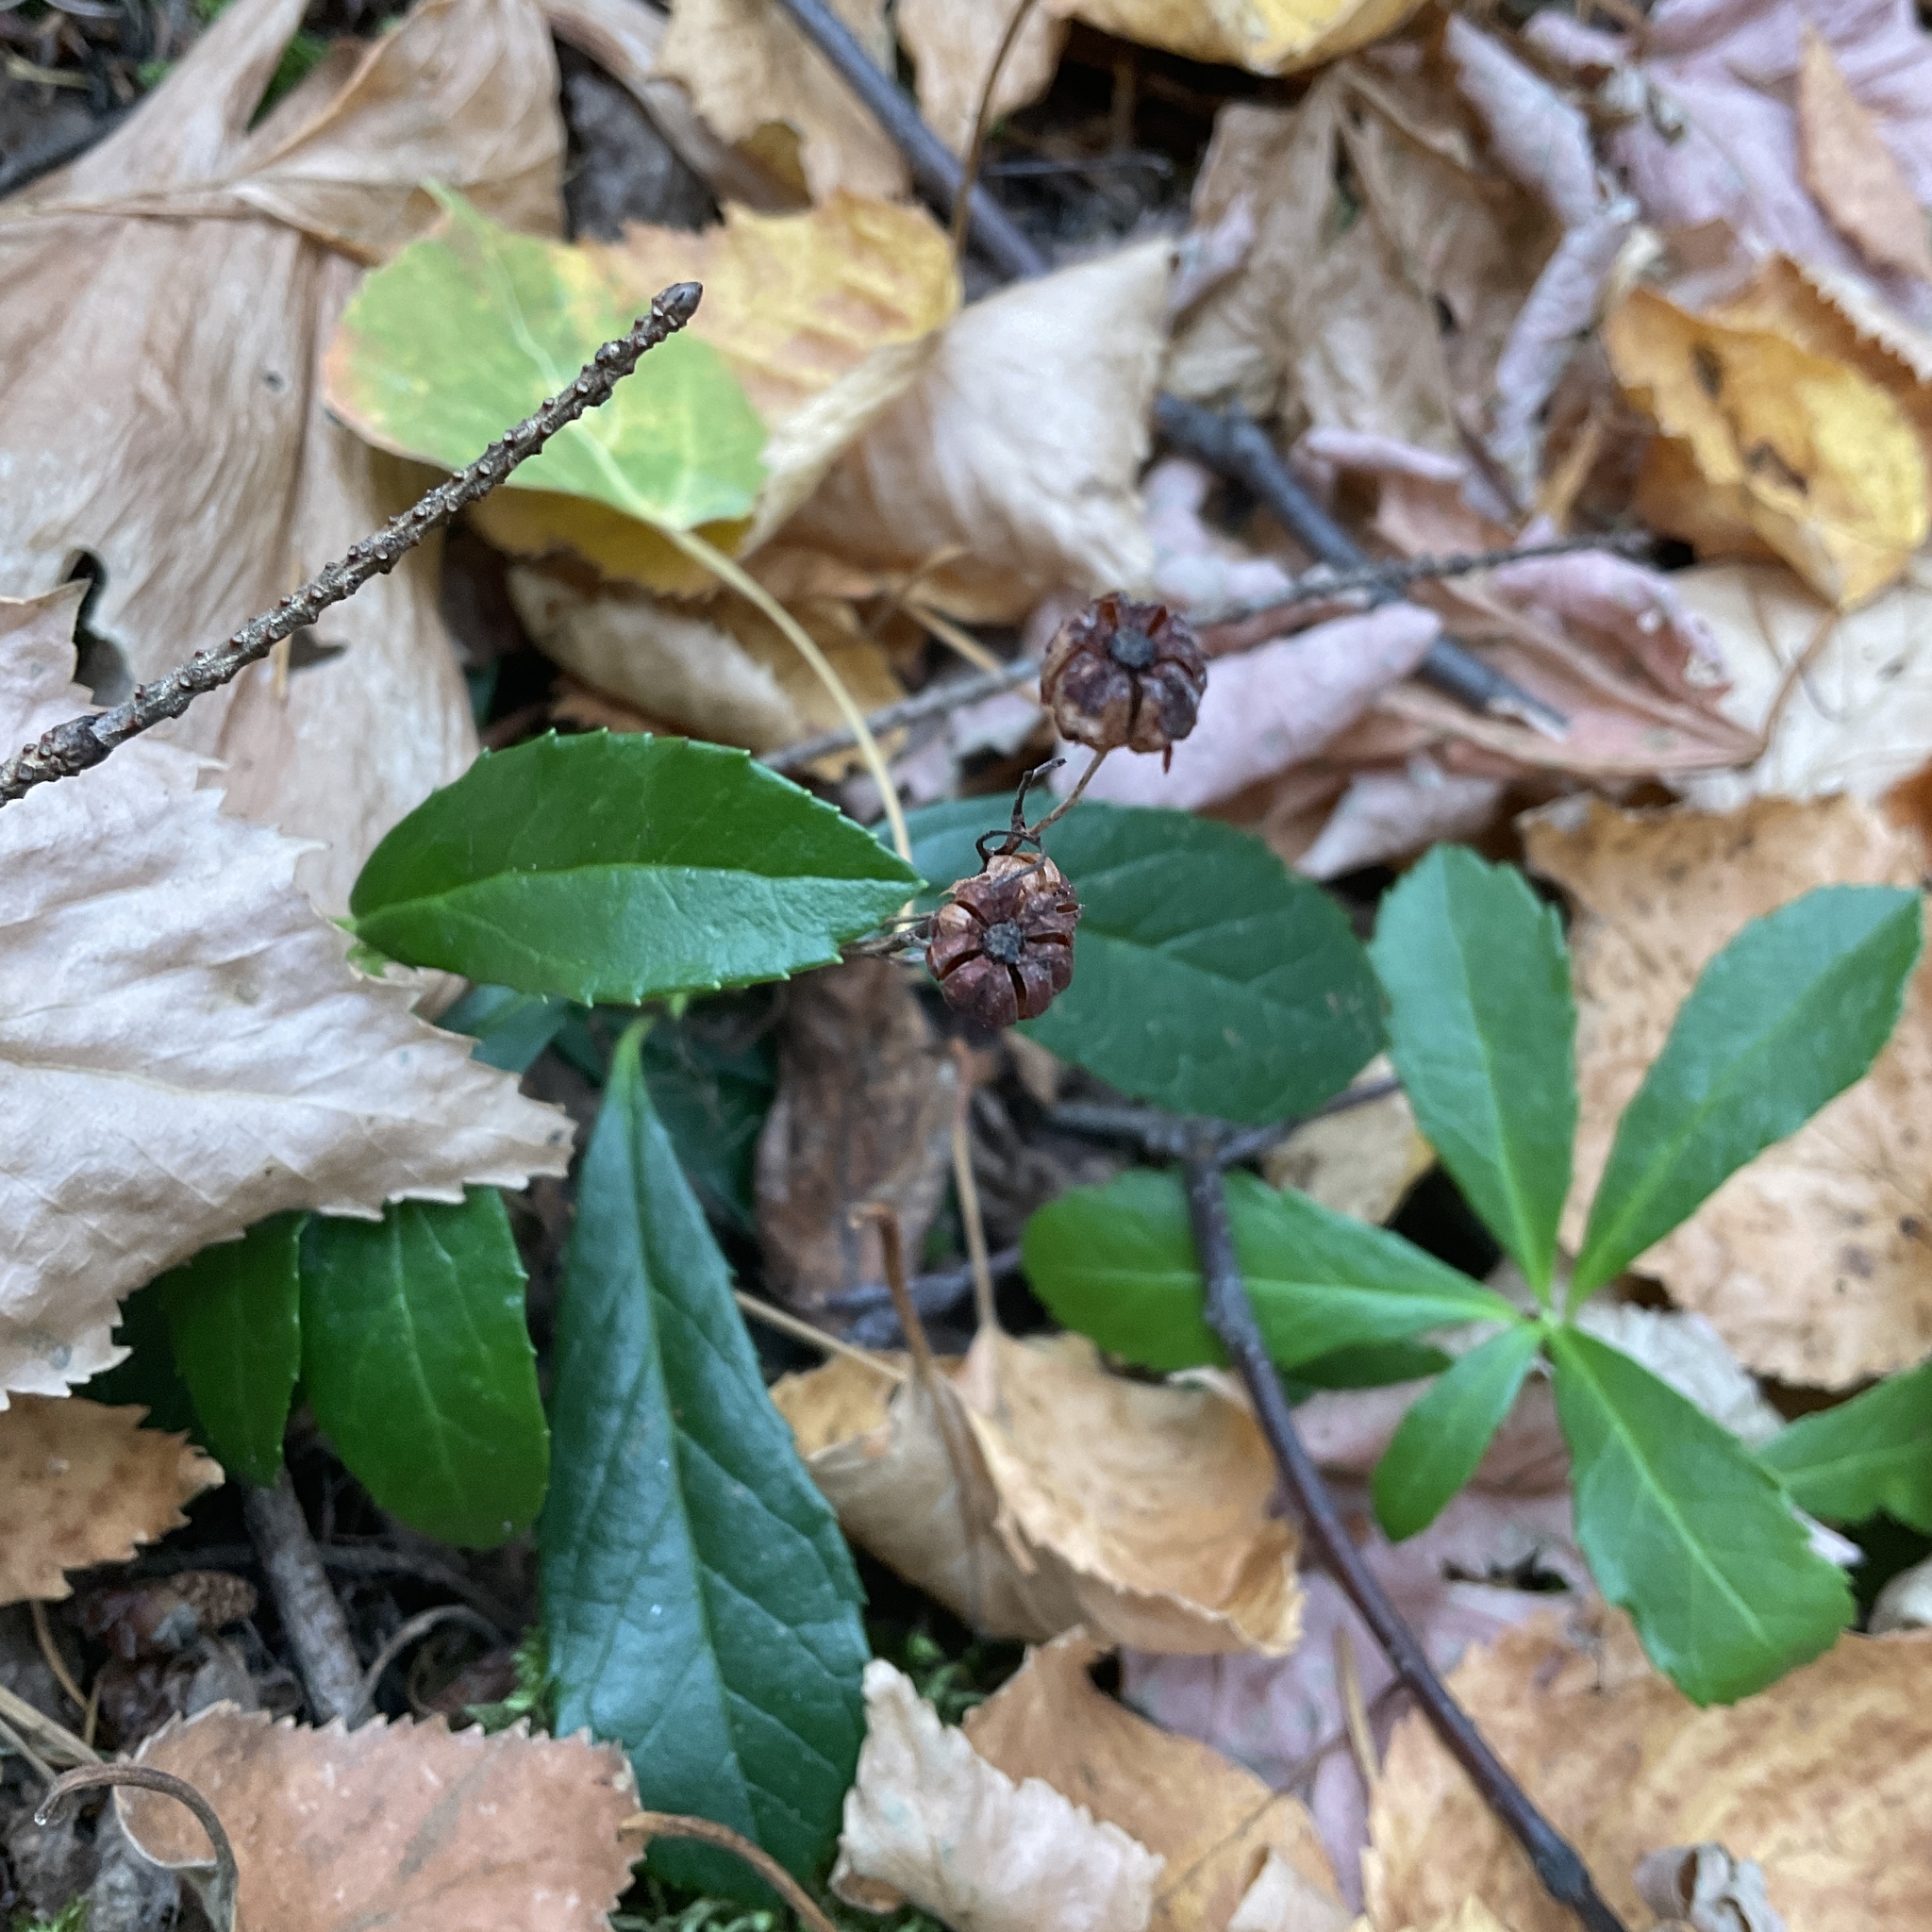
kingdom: Plantae
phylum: Tracheophyta
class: Magnoliopsida
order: Ericales
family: Ericaceae
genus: Chimaphila
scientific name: Chimaphila umbellata
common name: Pipsissewa
